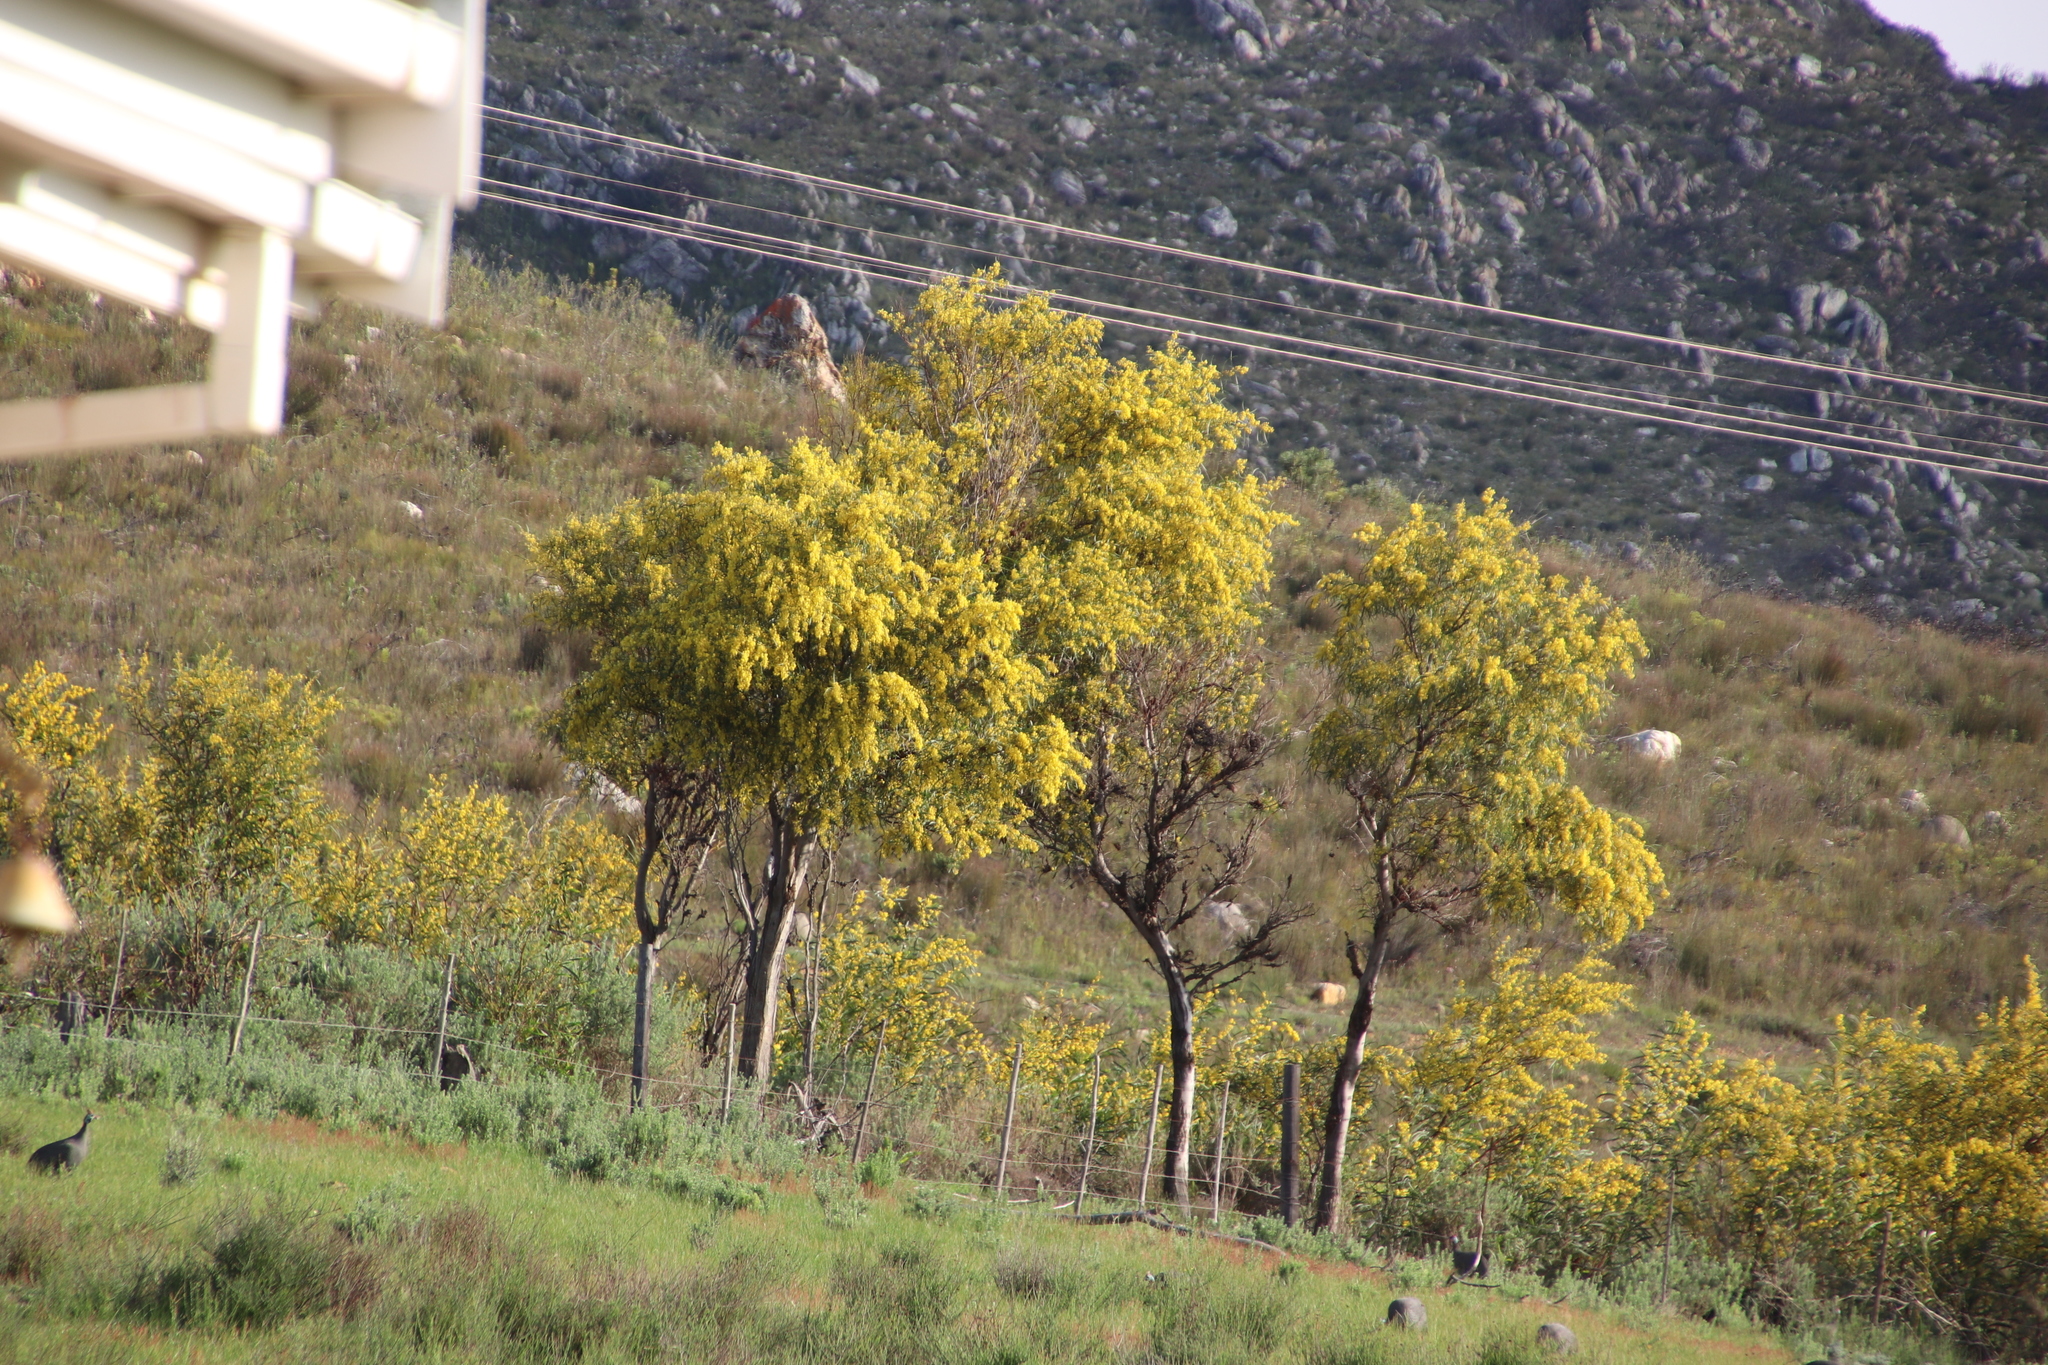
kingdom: Fungi
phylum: Basidiomycota
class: Pucciniomycetes
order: Pucciniales
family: Uromycladiaceae
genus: Uromycladium
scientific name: Uromycladium morrisii
